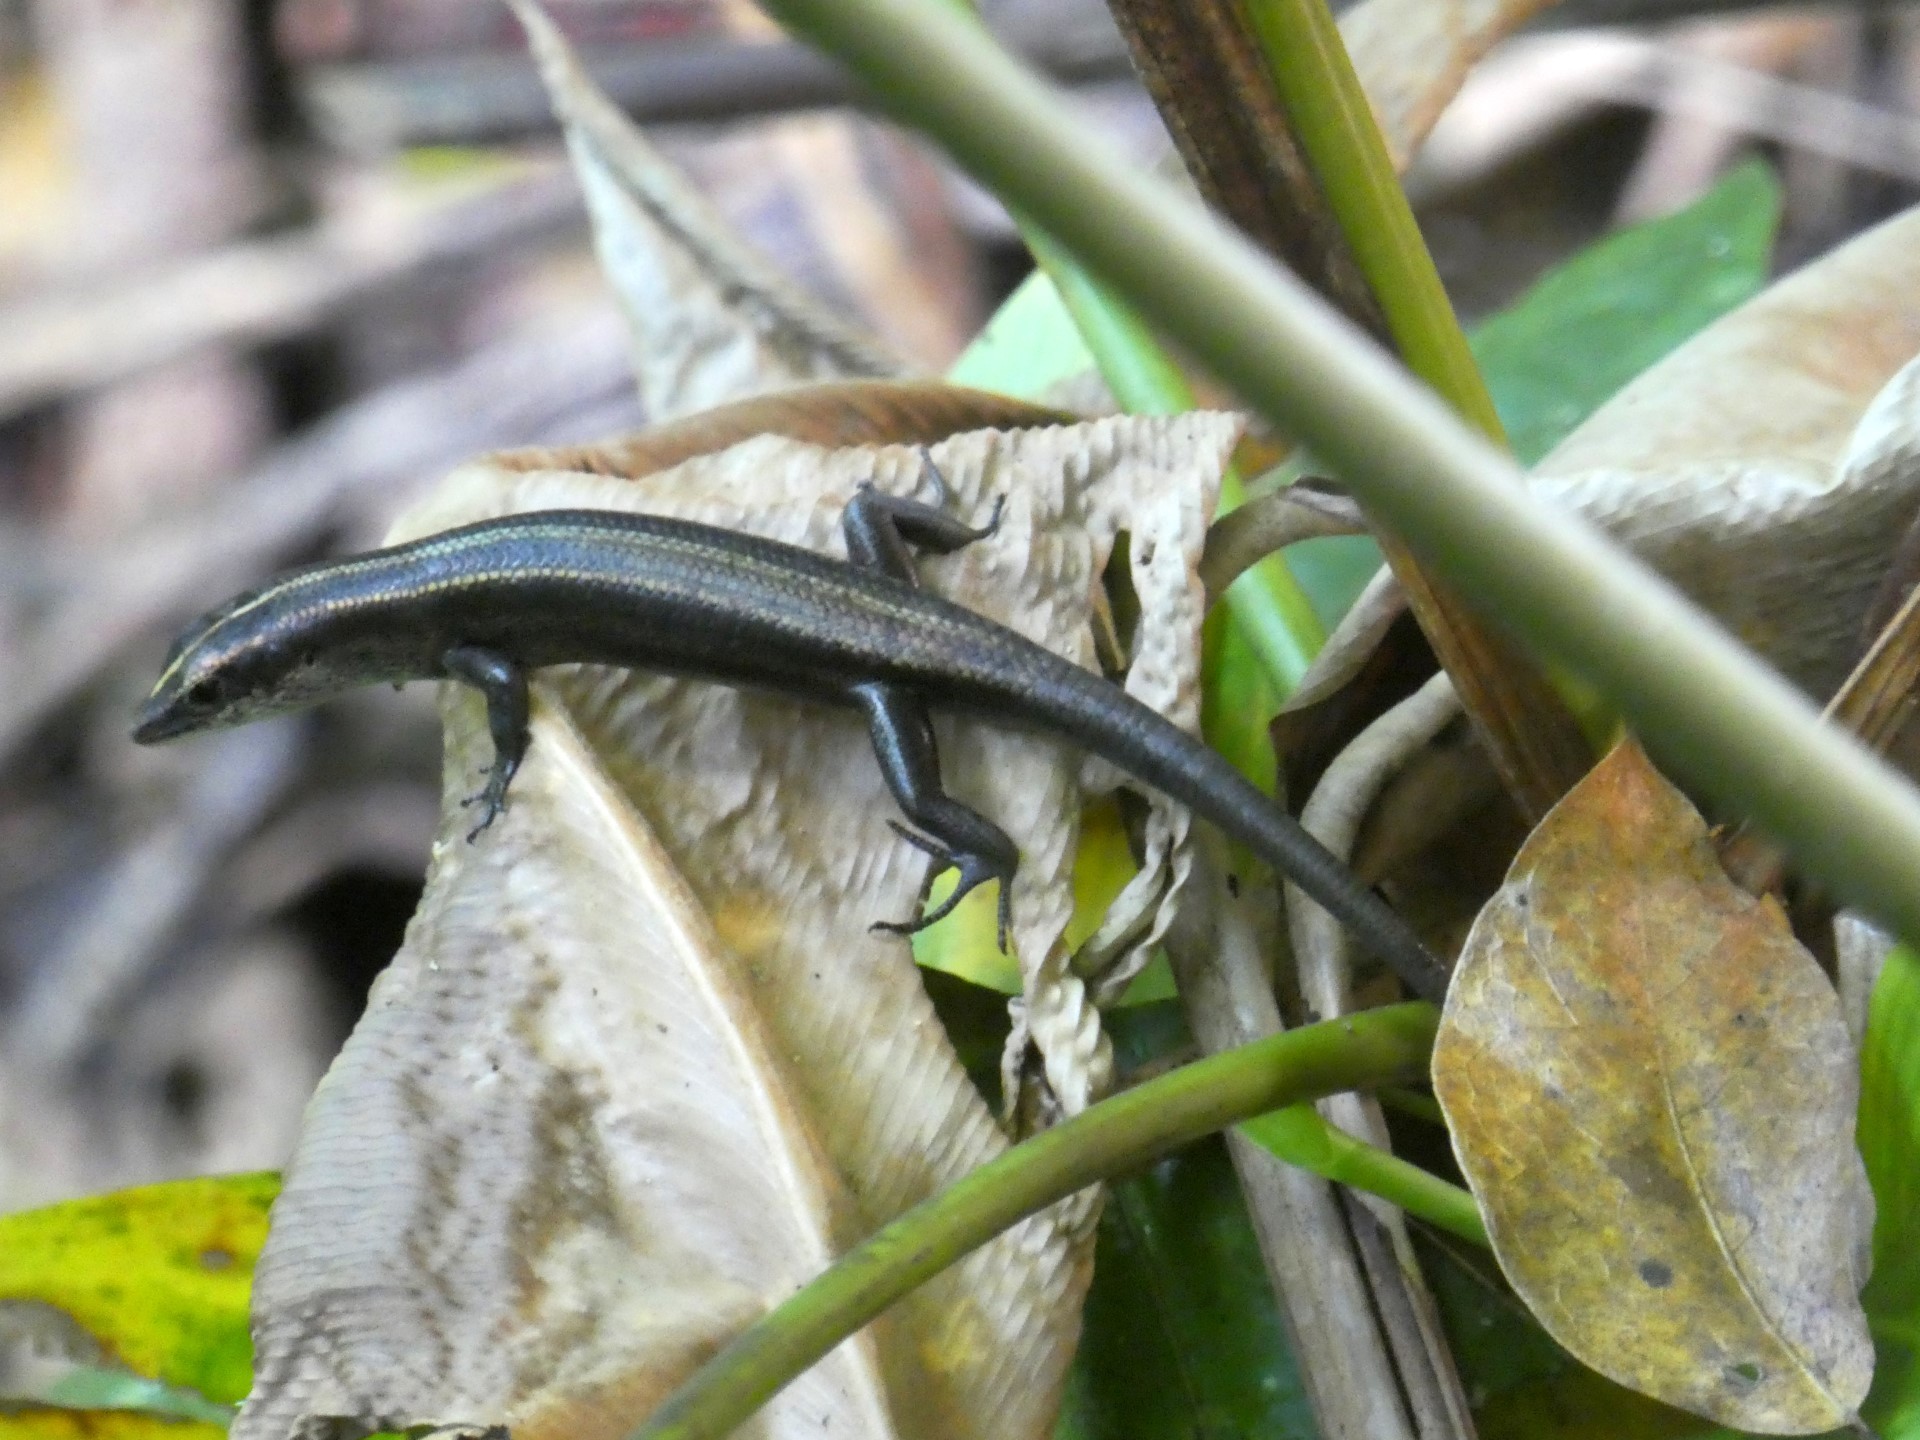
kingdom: Animalia
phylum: Chordata
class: Squamata
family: Scincidae
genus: Emoia
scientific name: Emoia caeruleocauda
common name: Pacific bluetail skink
